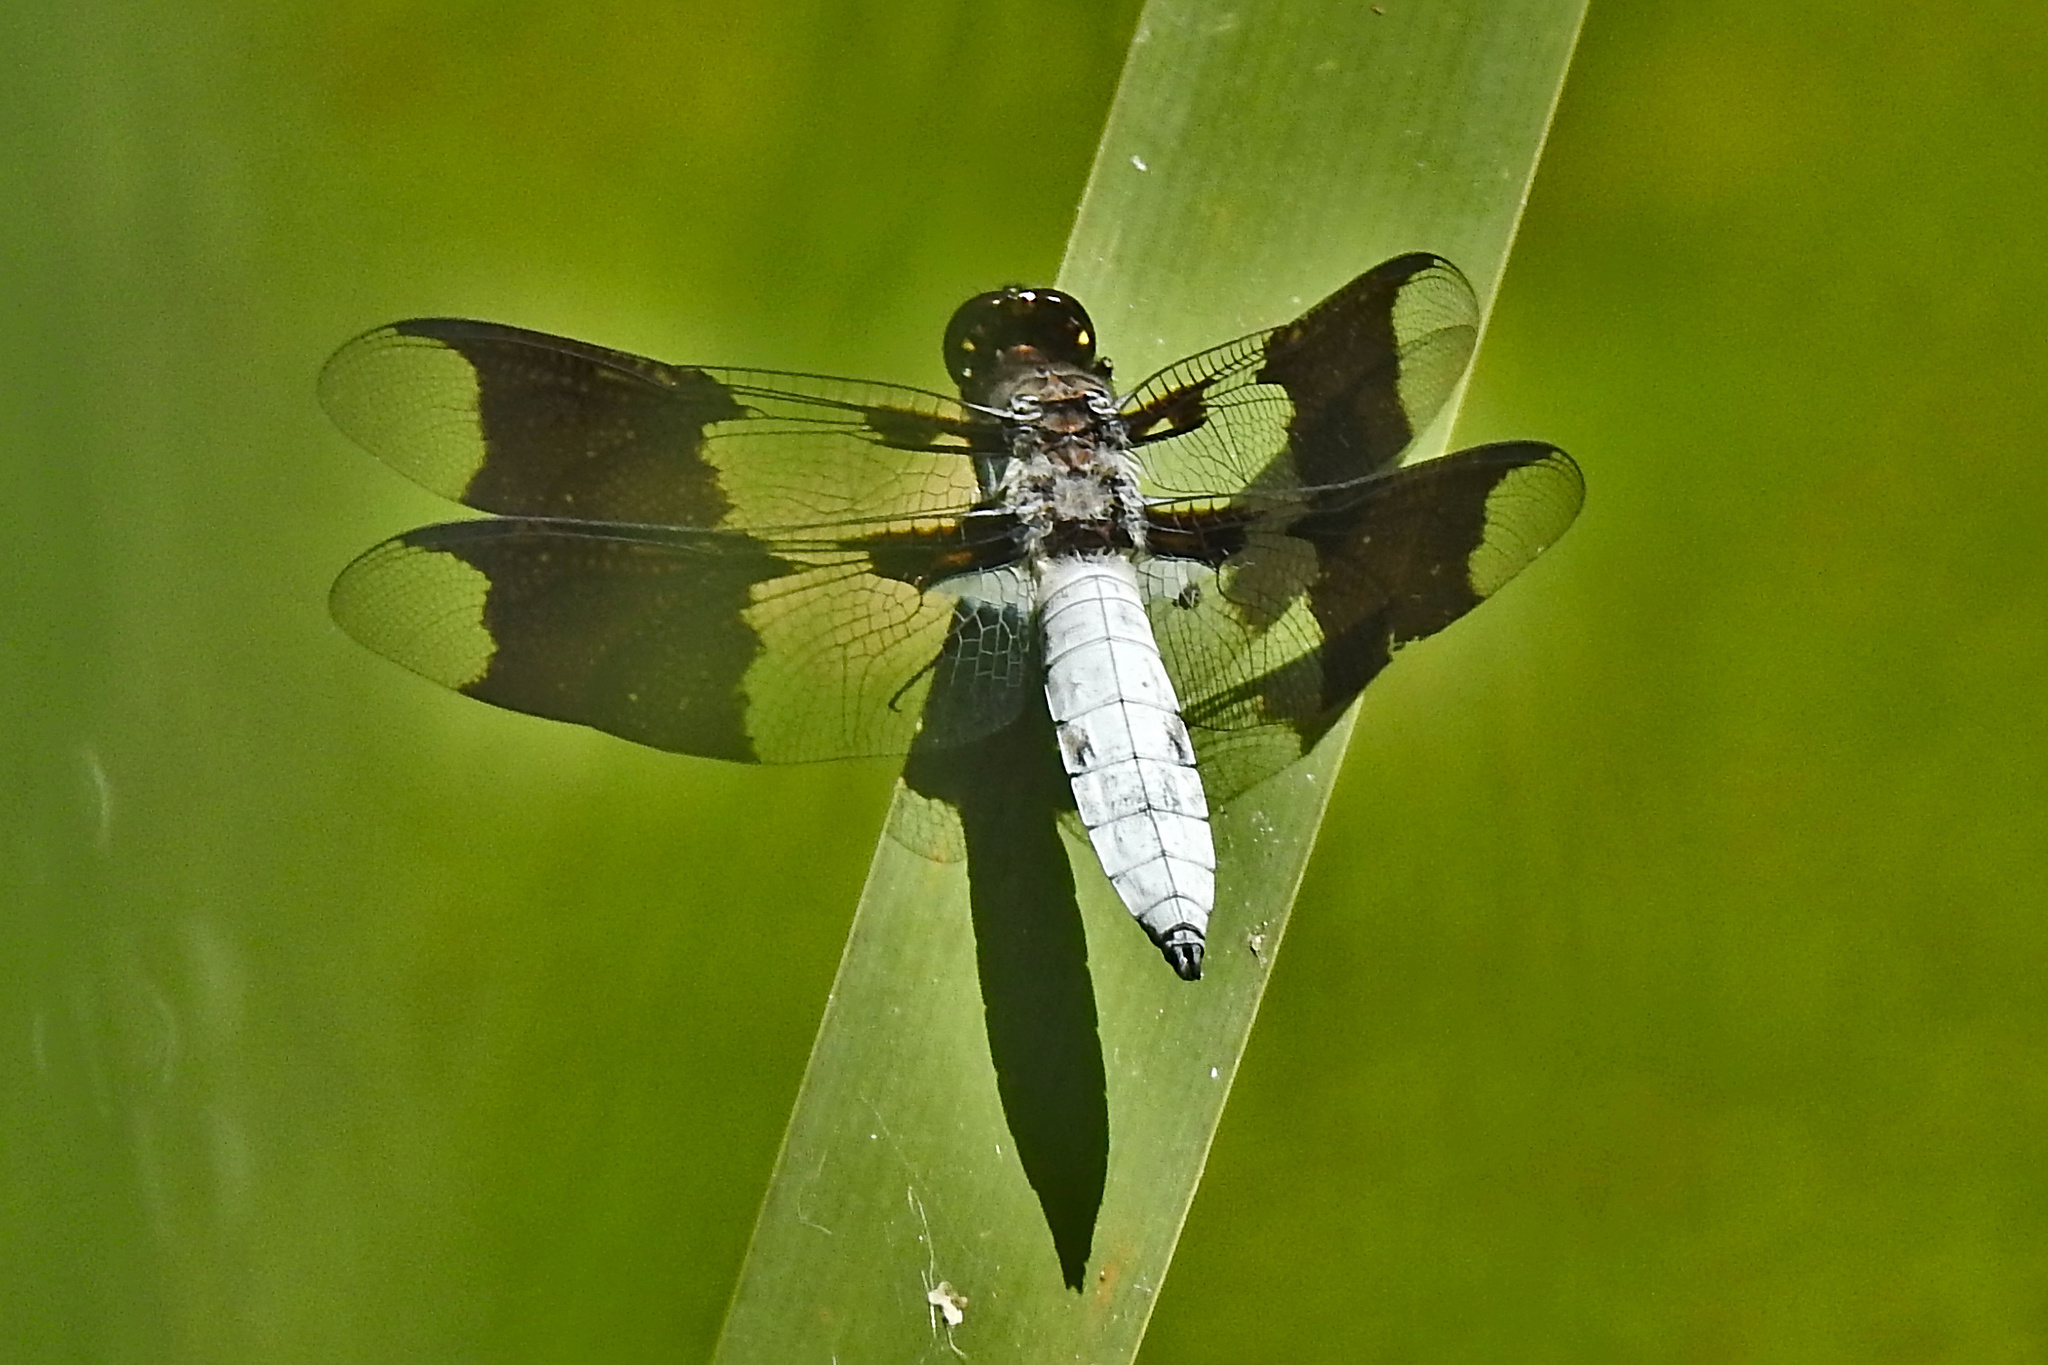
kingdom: Animalia
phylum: Arthropoda
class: Insecta
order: Odonata
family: Libellulidae
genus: Plathemis
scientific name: Plathemis lydia
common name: Common whitetail
